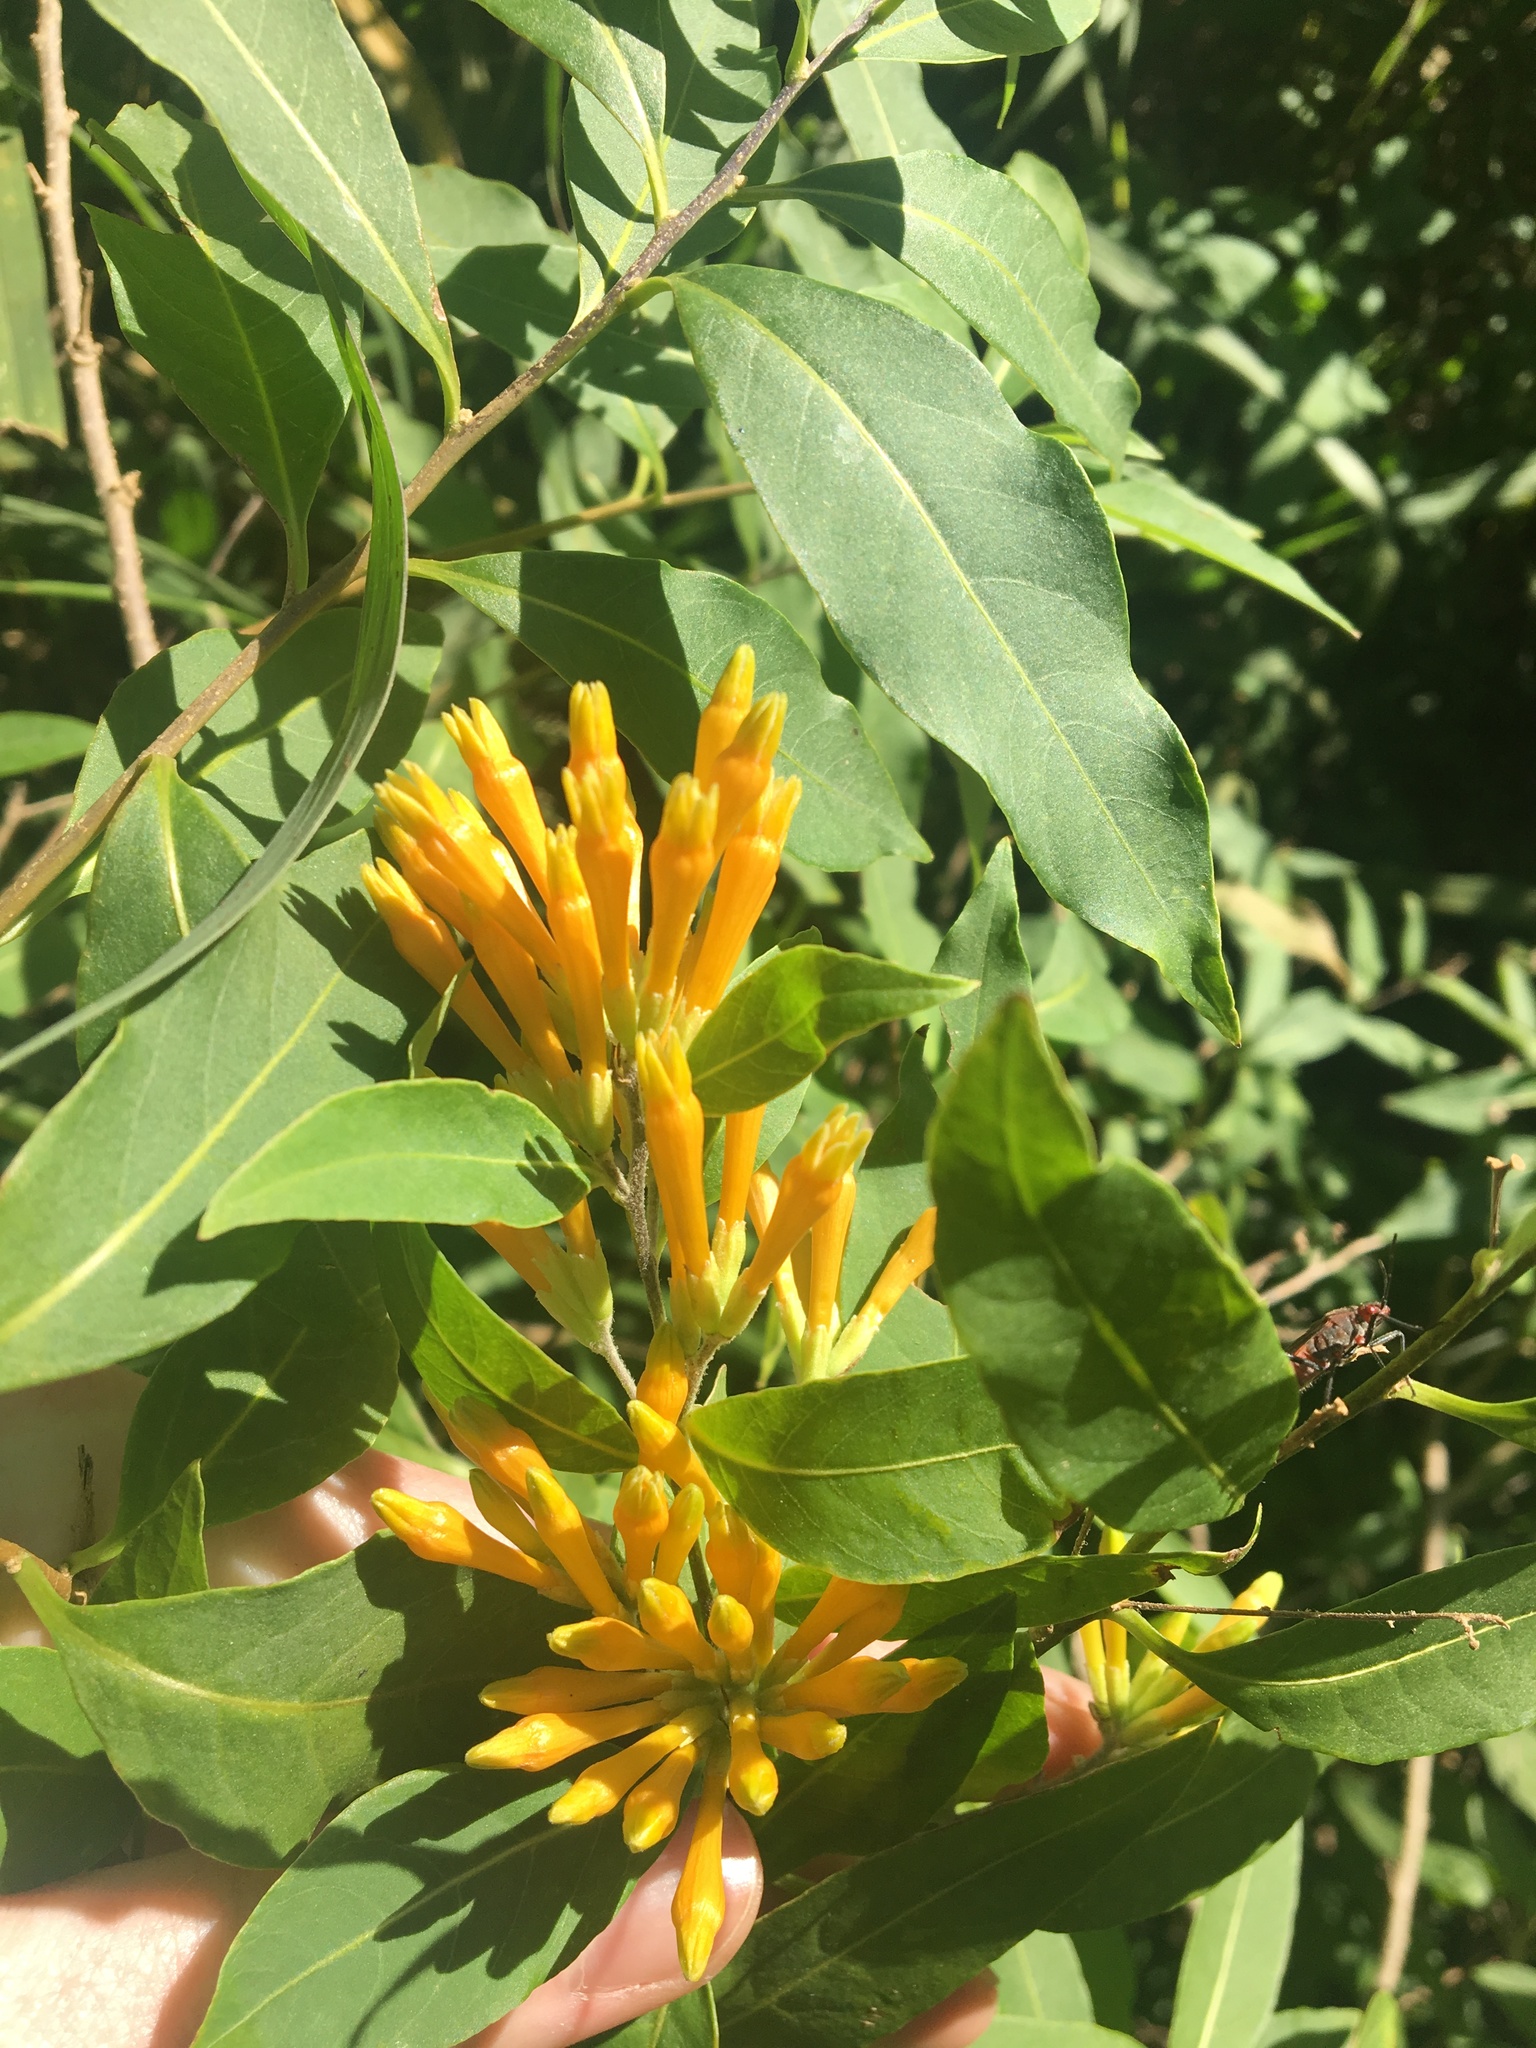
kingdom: Plantae
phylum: Tracheophyta
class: Magnoliopsida
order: Solanales
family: Solanaceae
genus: Cestrum
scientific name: Cestrum parqui
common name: Chilean cestrum
